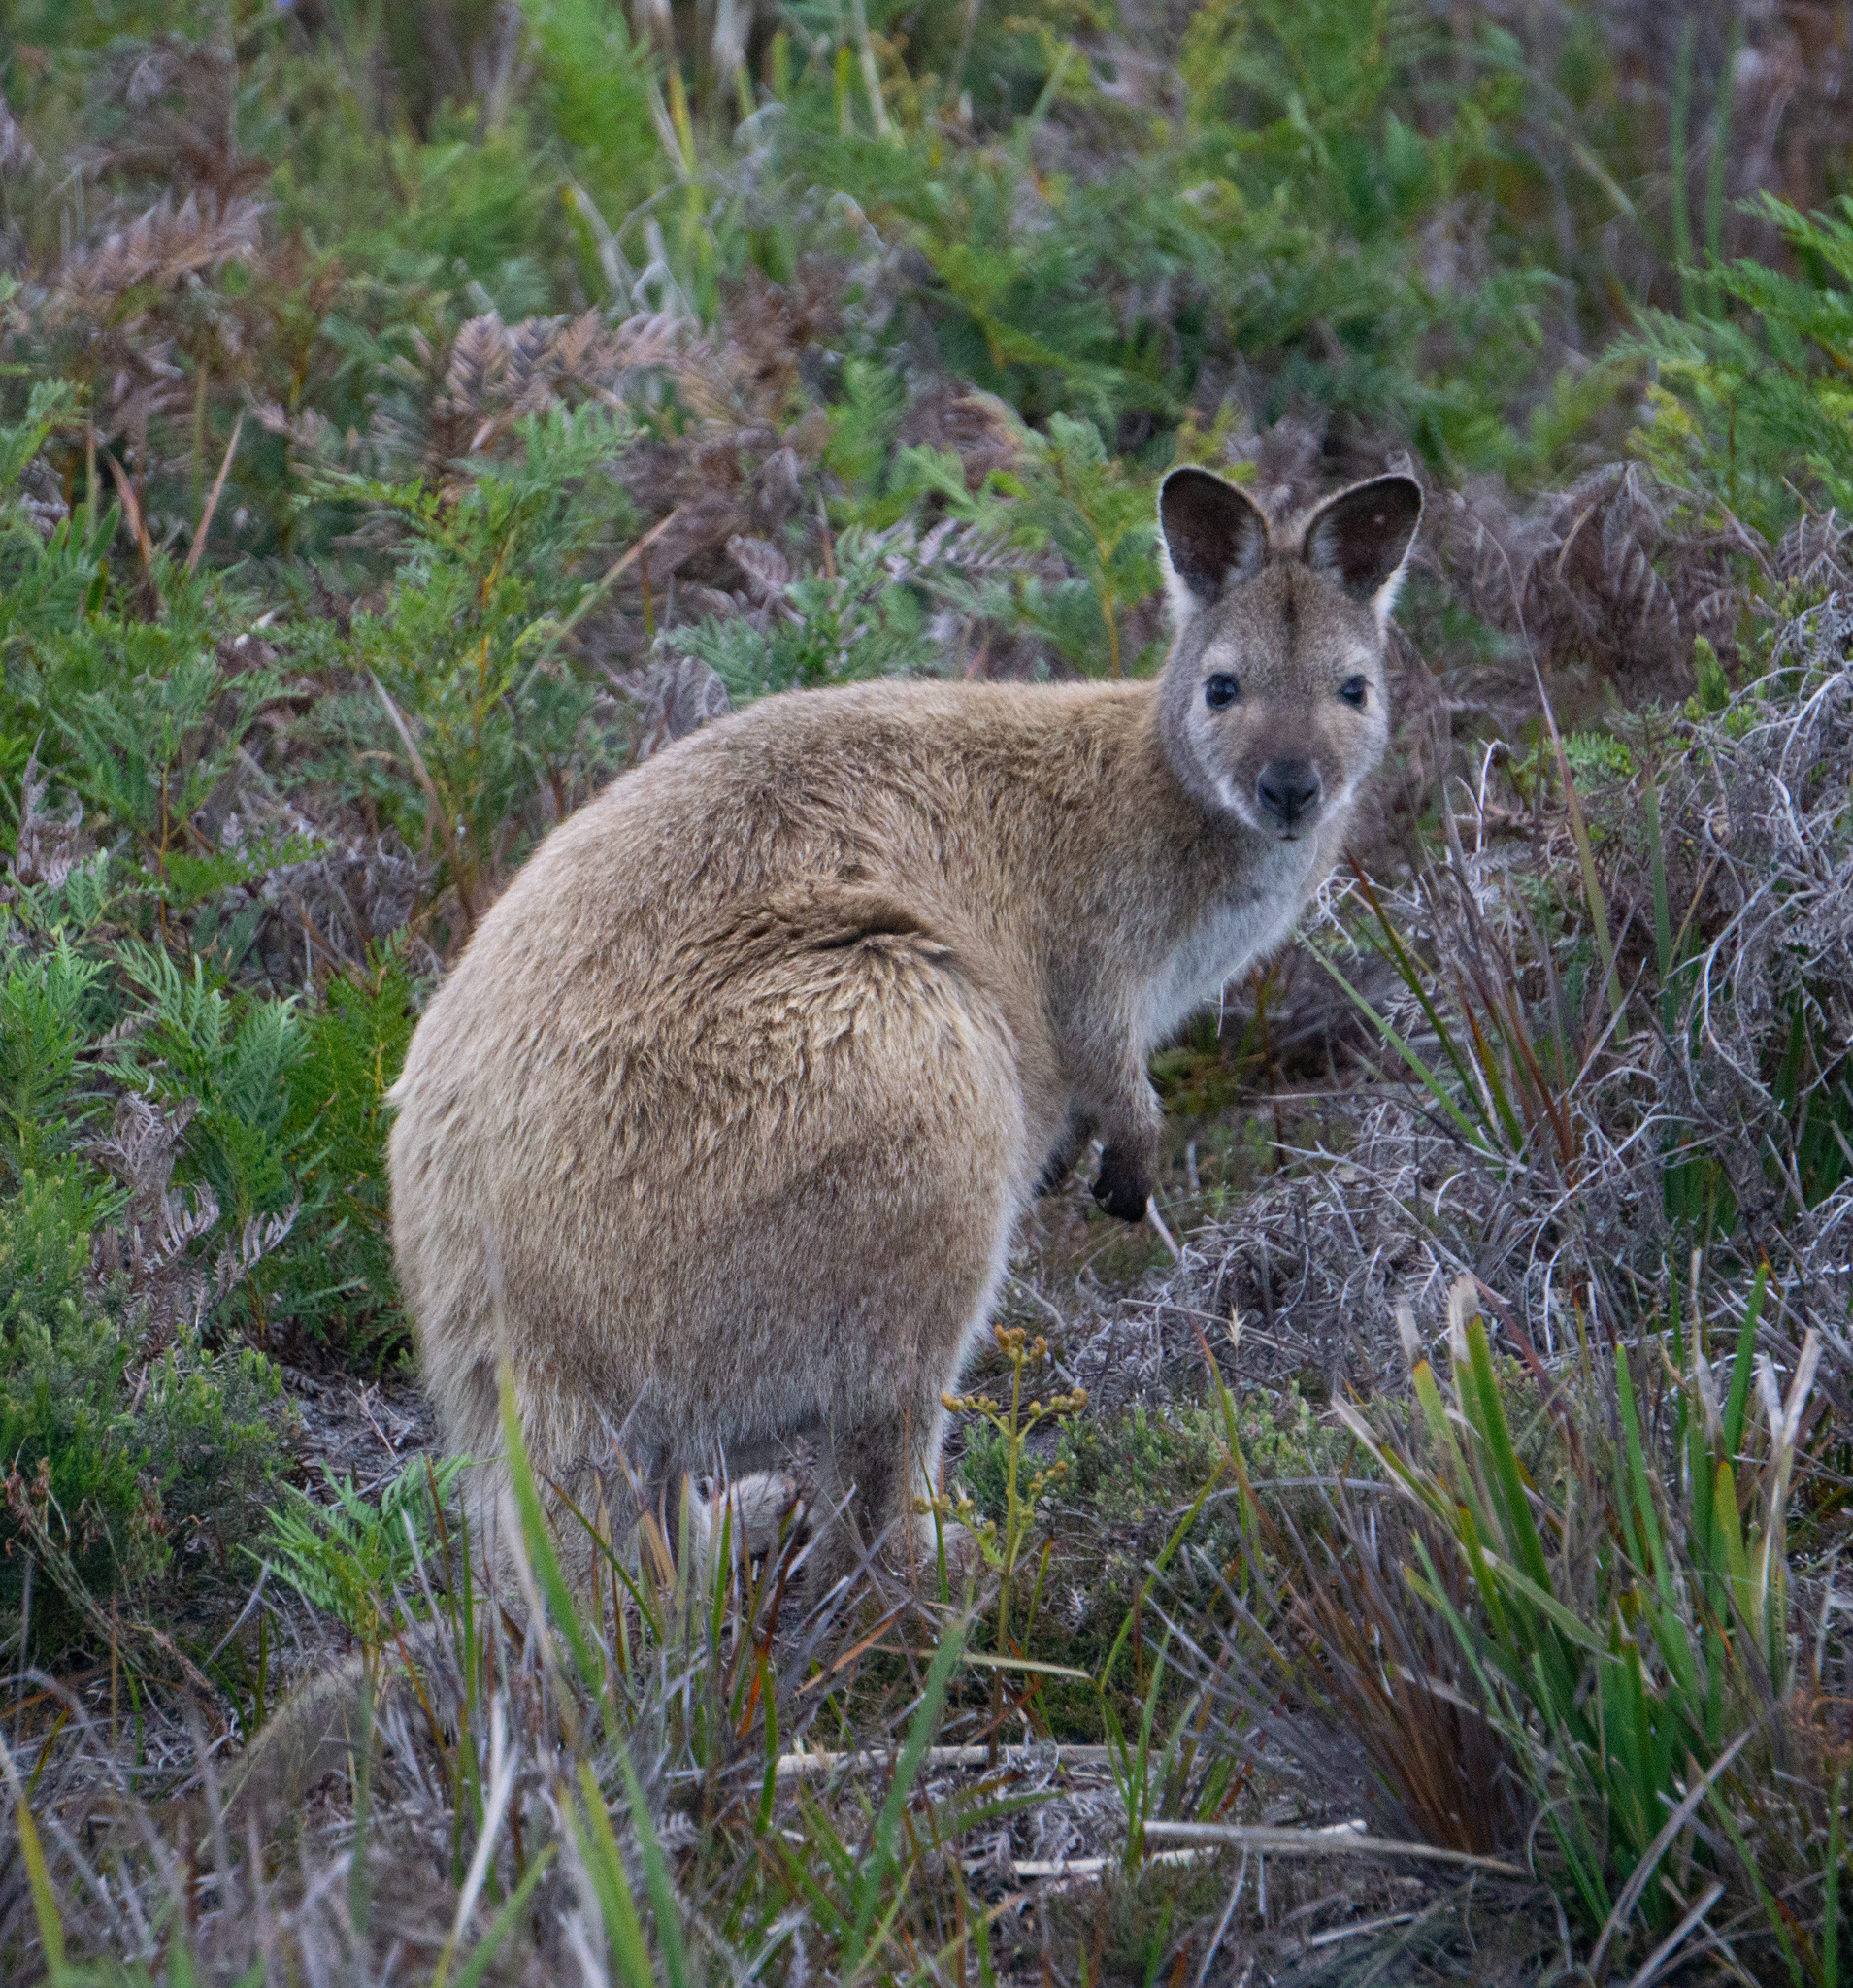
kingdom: Animalia
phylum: Chordata
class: Mammalia
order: Diprotodontia
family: Macropodidae
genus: Notamacropus
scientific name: Notamacropus rufogriseus
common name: Red-necked wallaby
